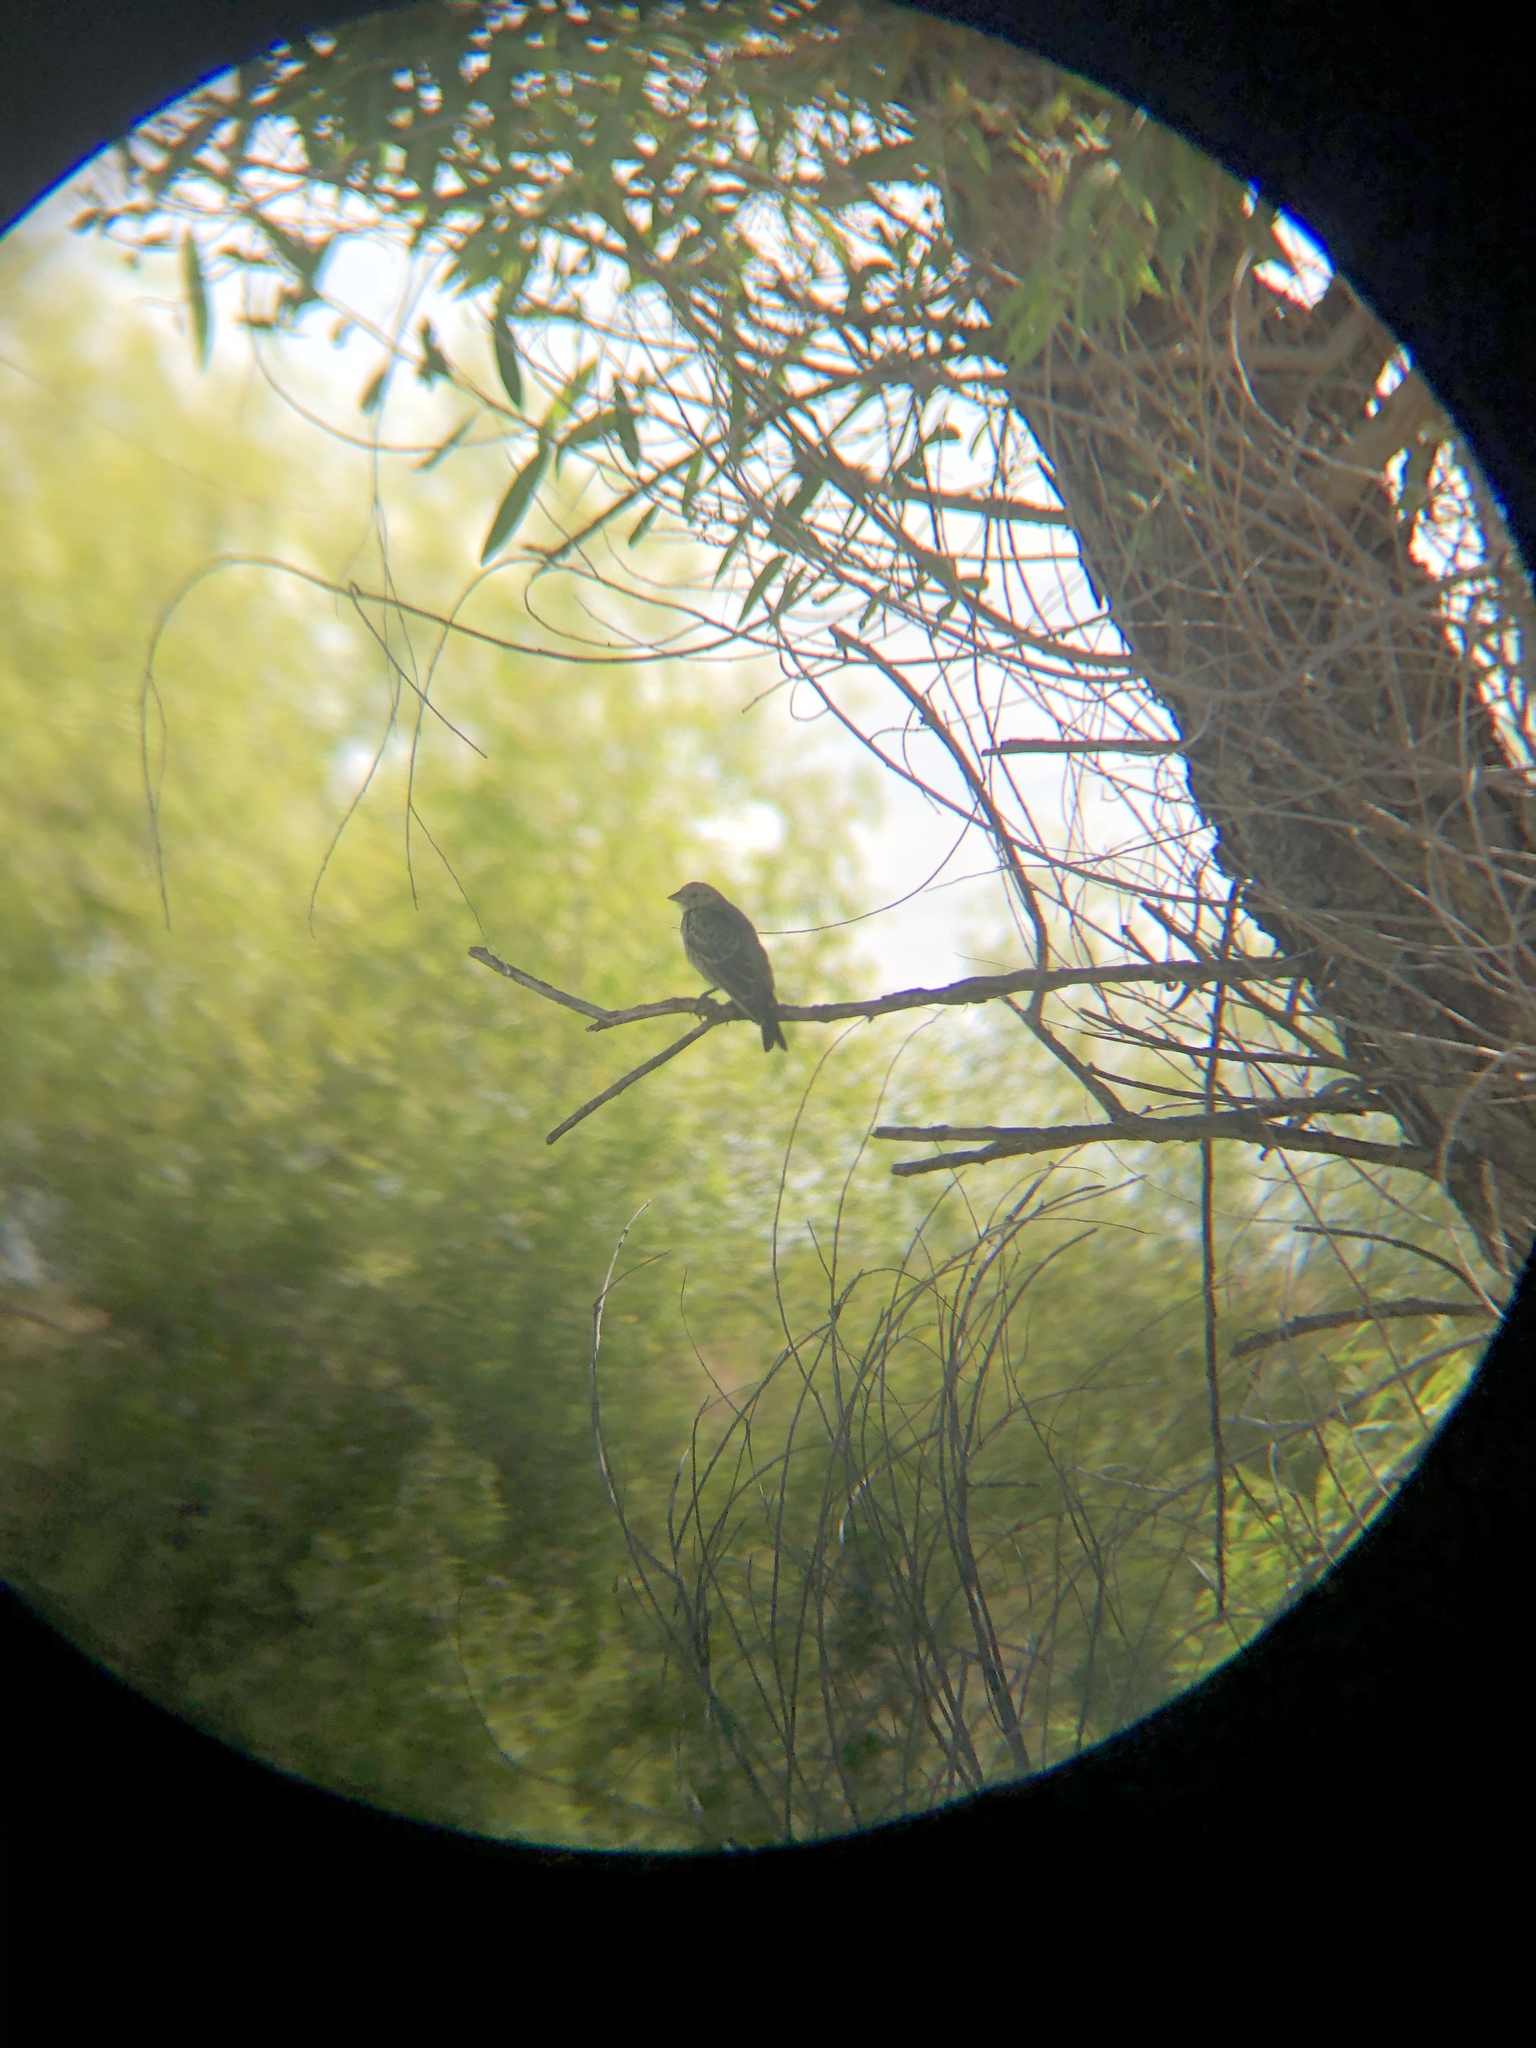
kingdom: Animalia
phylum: Chordata
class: Aves
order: Passeriformes
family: Icteridae
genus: Molothrus
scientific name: Molothrus ater
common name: Brown-headed cowbird
